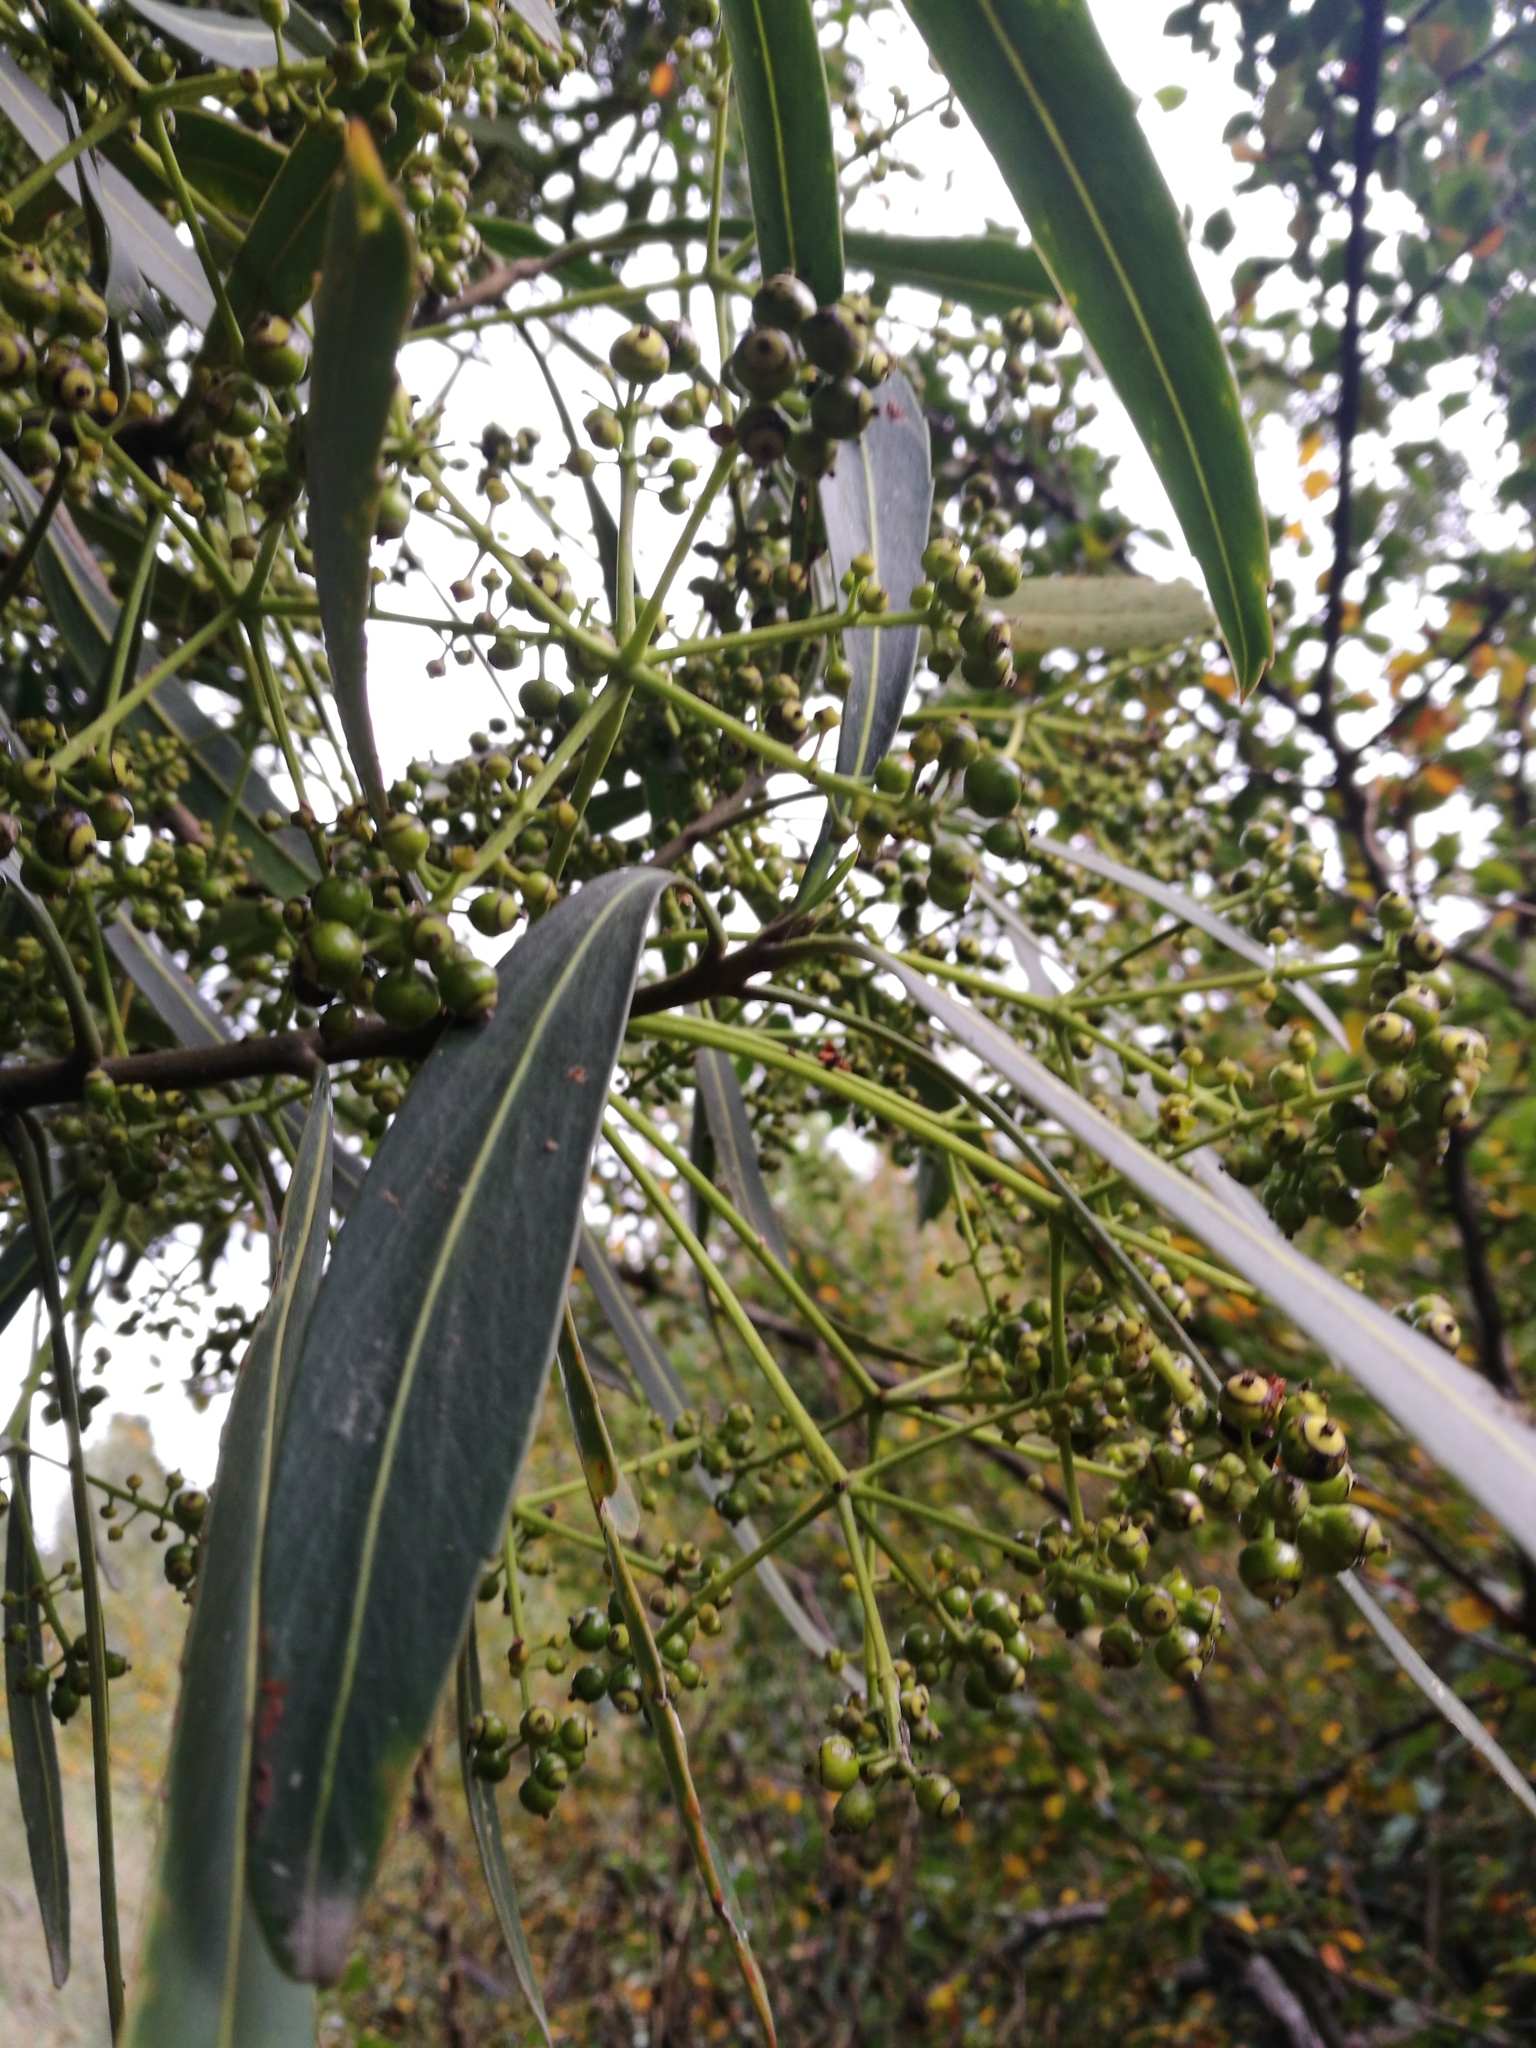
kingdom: Plantae
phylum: Tracheophyta
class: Magnoliopsida
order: Apiales
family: Araliaceae
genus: Pseudopanax
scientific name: Pseudopanax crassifolius
